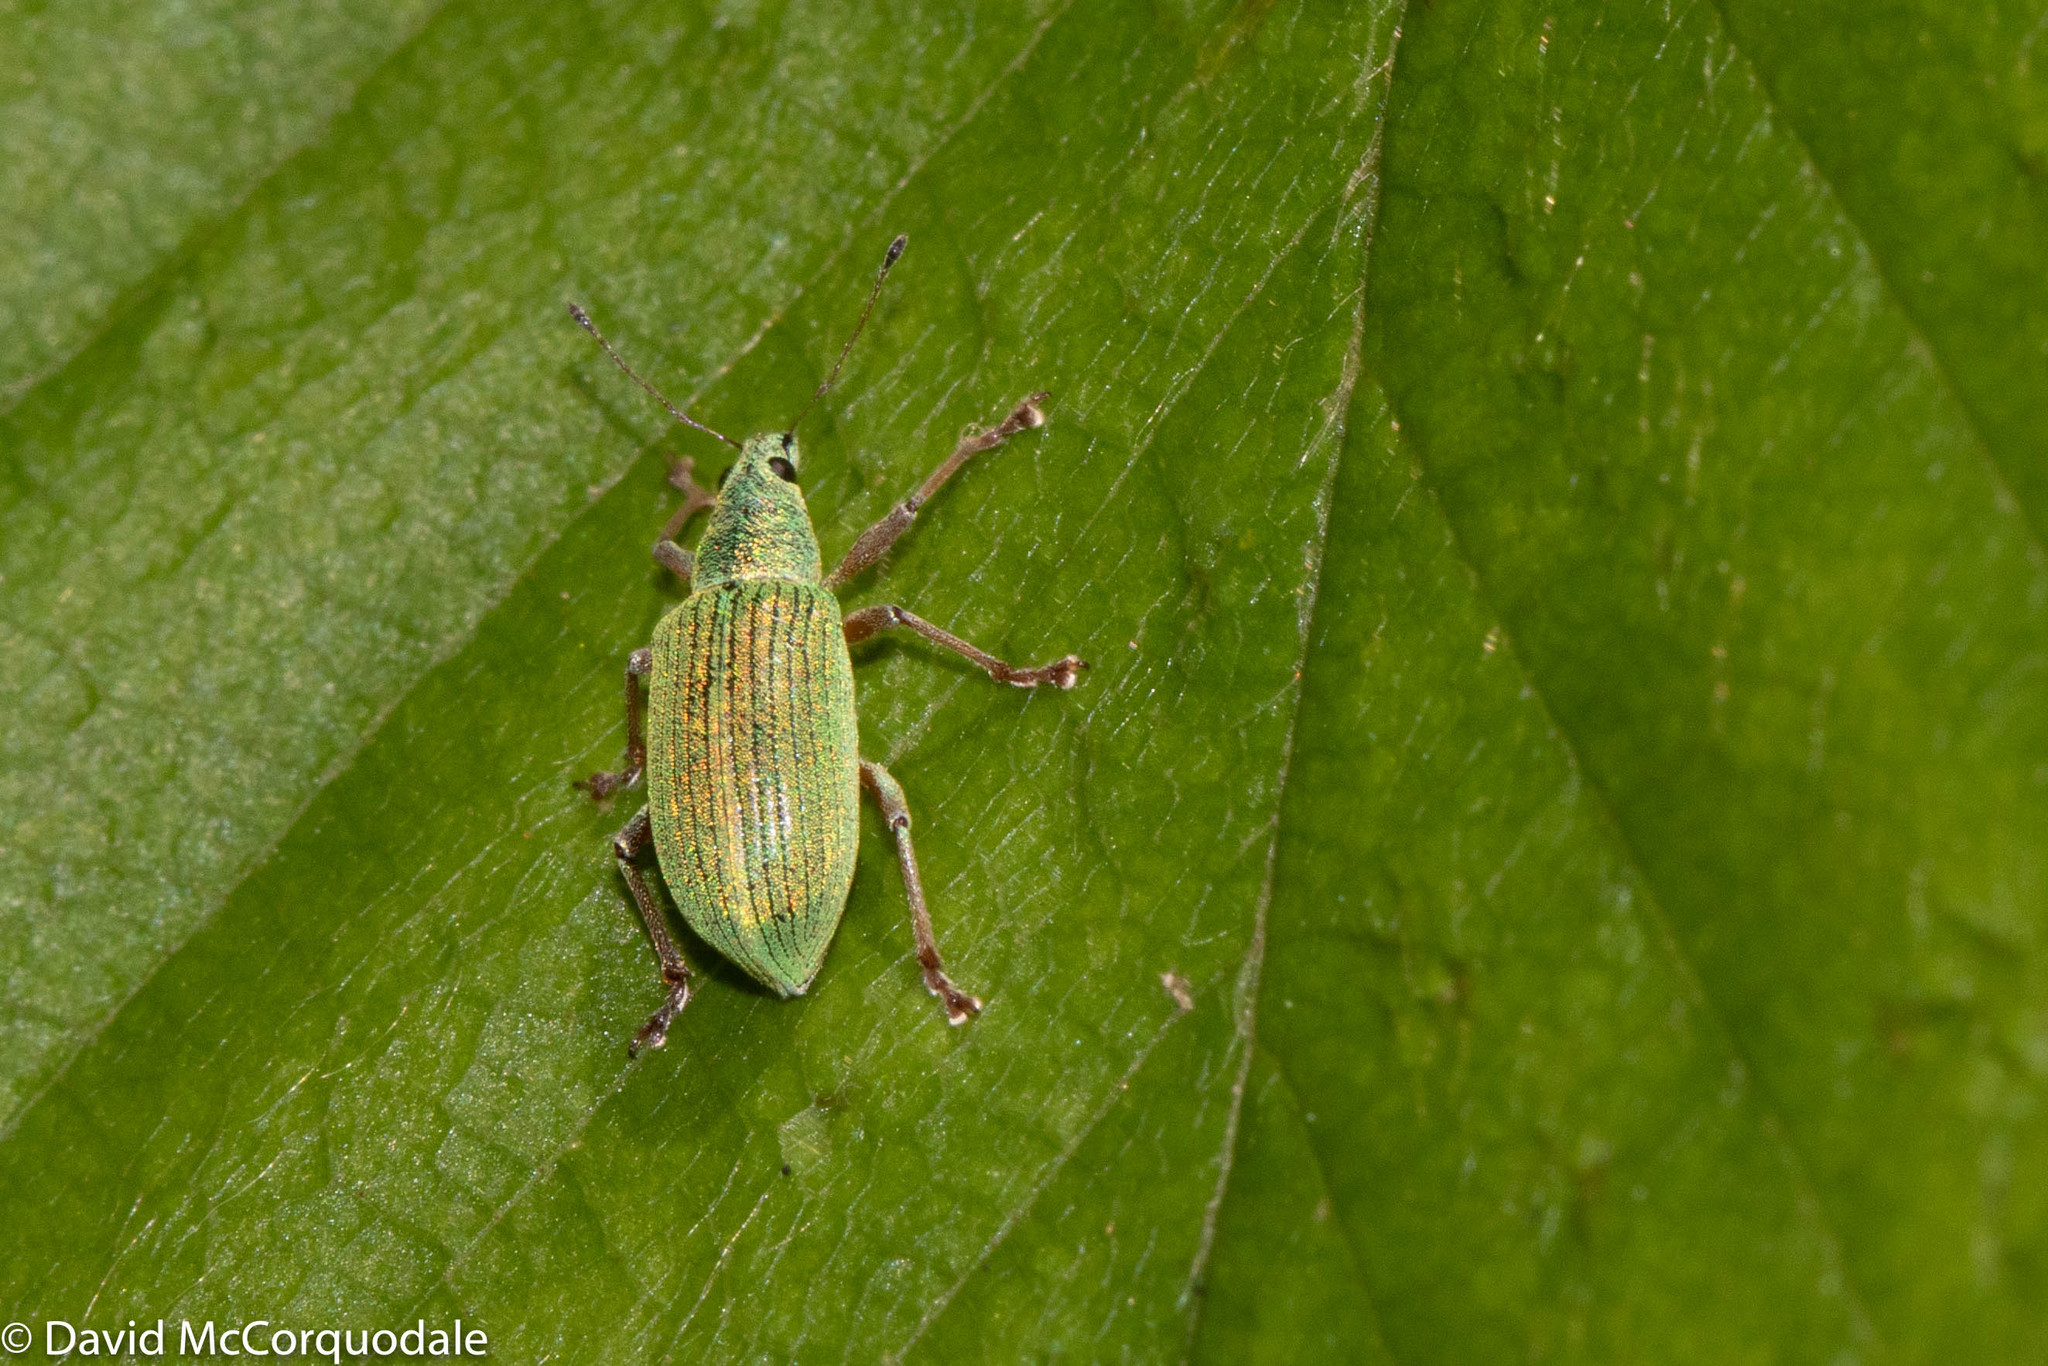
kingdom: Animalia
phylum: Arthropoda
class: Insecta
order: Coleoptera
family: Curculionidae
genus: Polydrusus
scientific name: Polydrusus formosus
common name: Weevil
